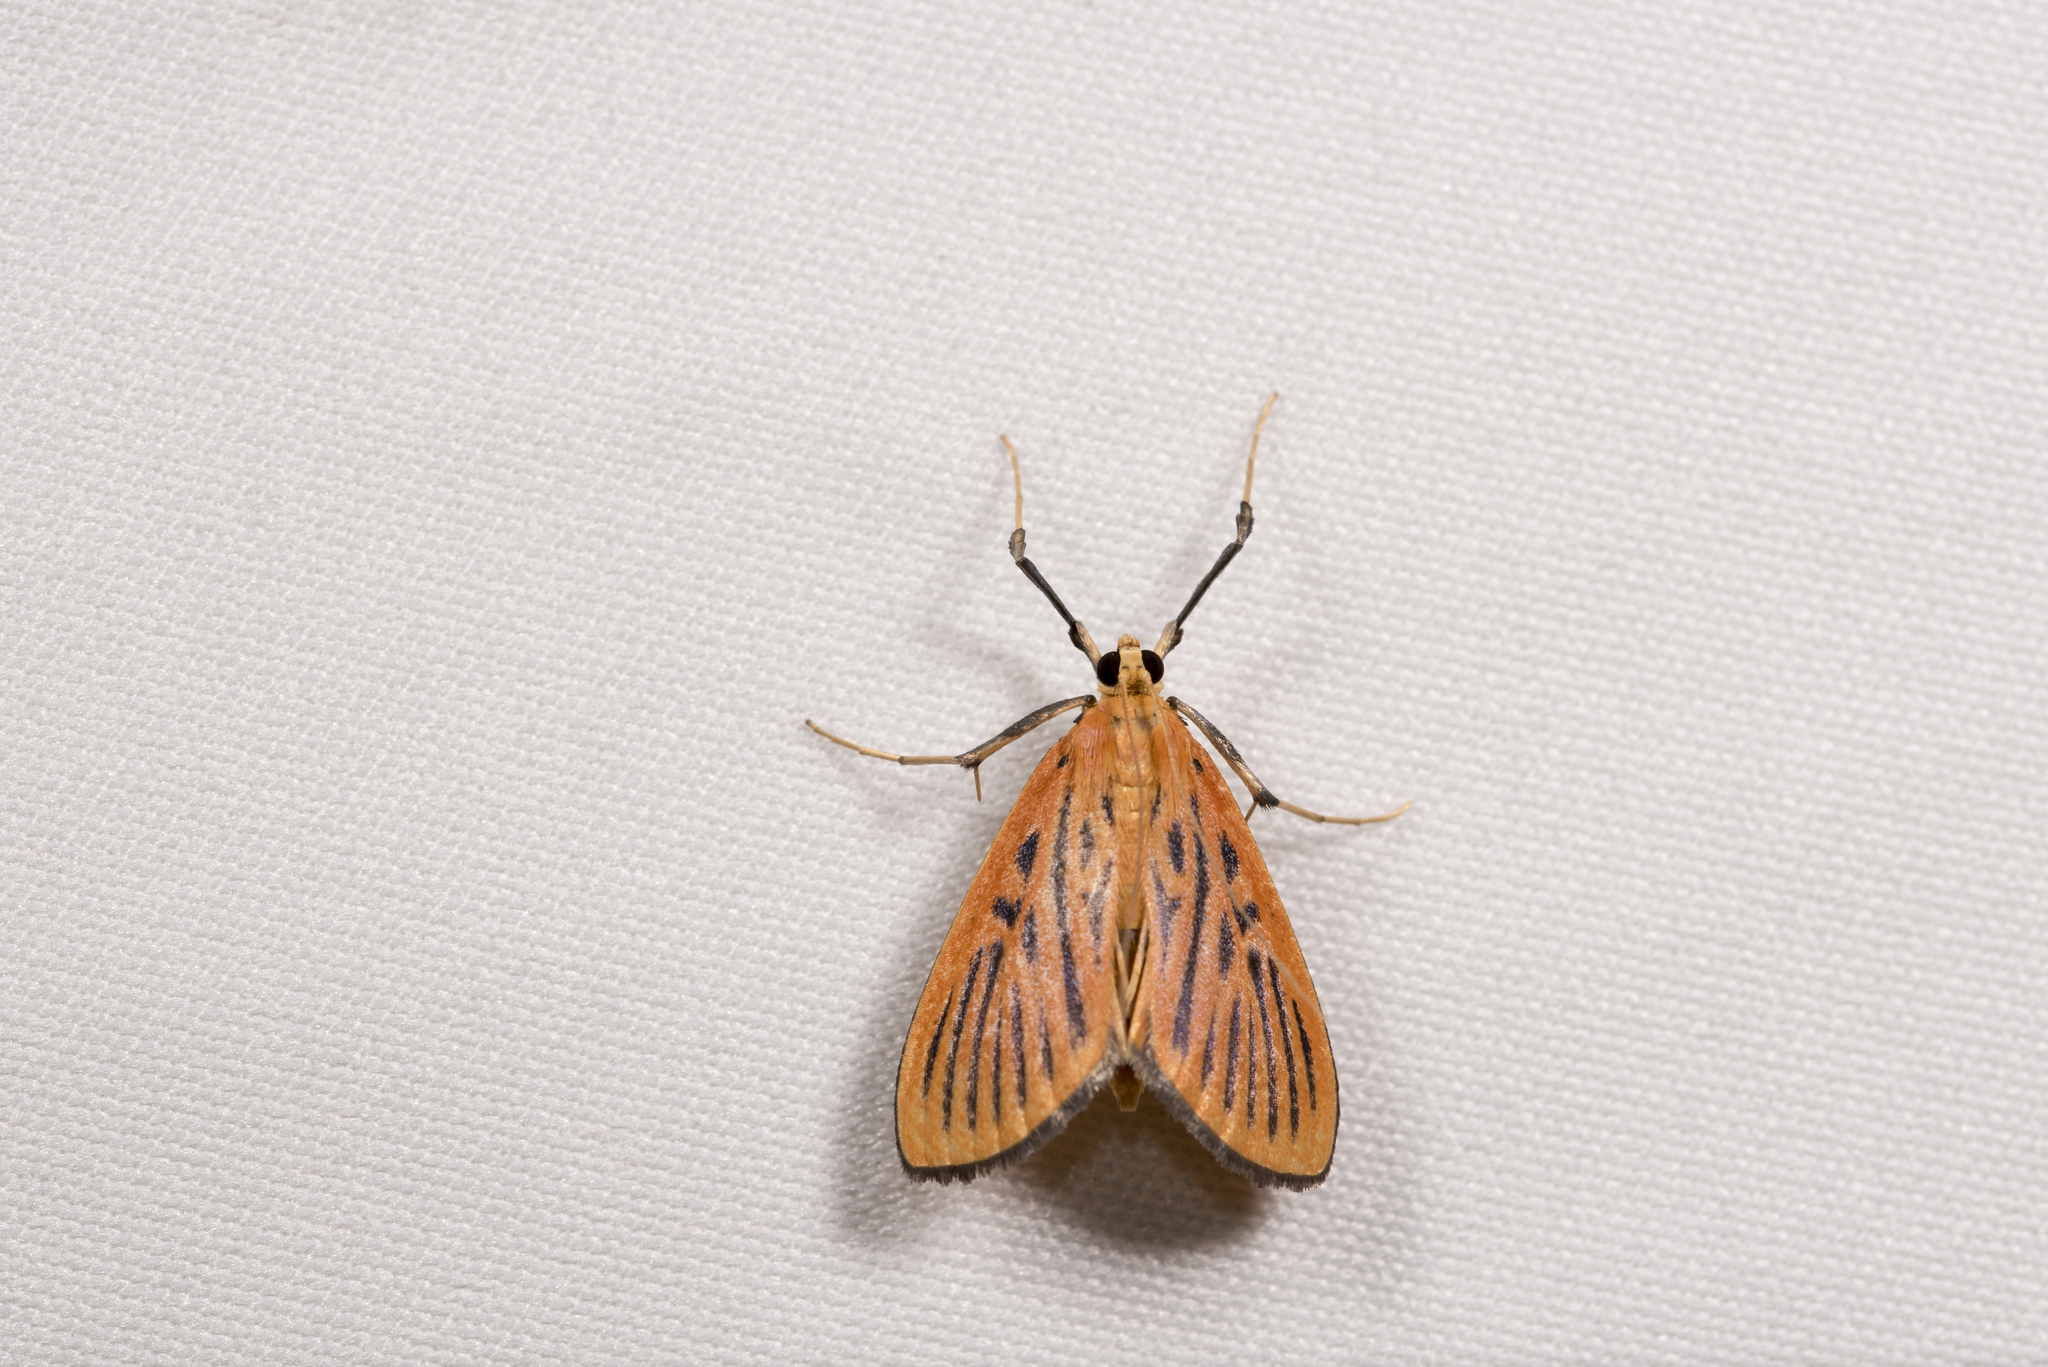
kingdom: Animalia
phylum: Arthropoda
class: Insecta
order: Lepidoptera
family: Crambidae
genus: Tyspanodes
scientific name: Tyspanodes striata
